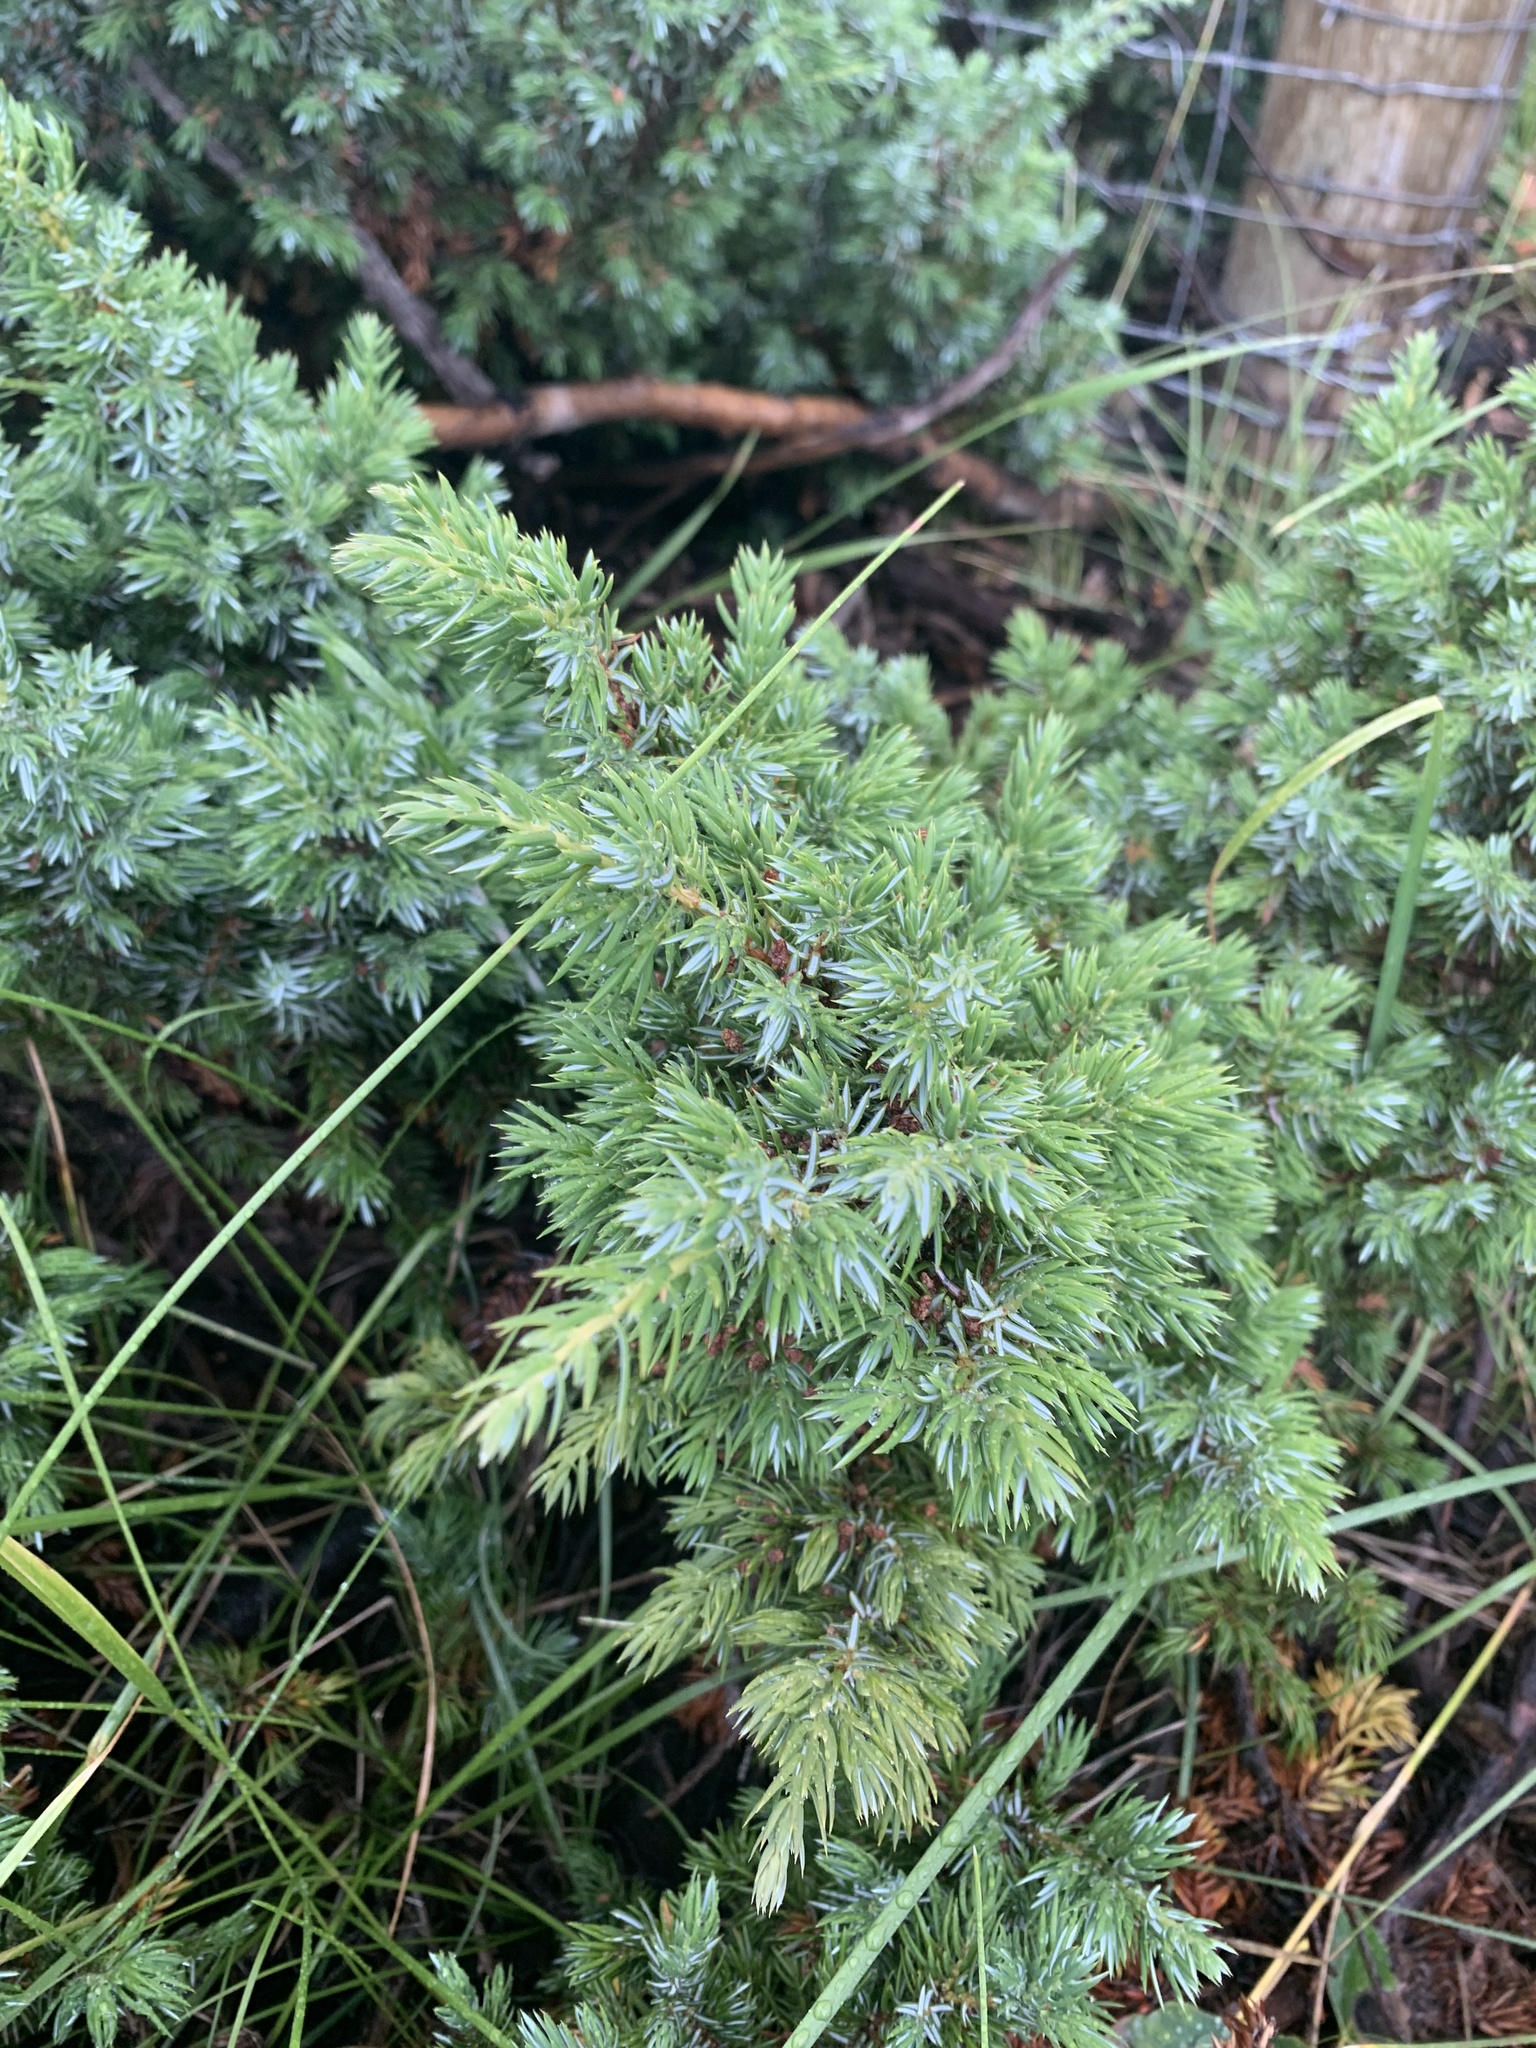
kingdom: Plantae
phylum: Tracheophyta
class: Pinopsida
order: Pinales
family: Cupressaceae
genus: Juniperus
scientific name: Juniperus communis
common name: Common juniper
